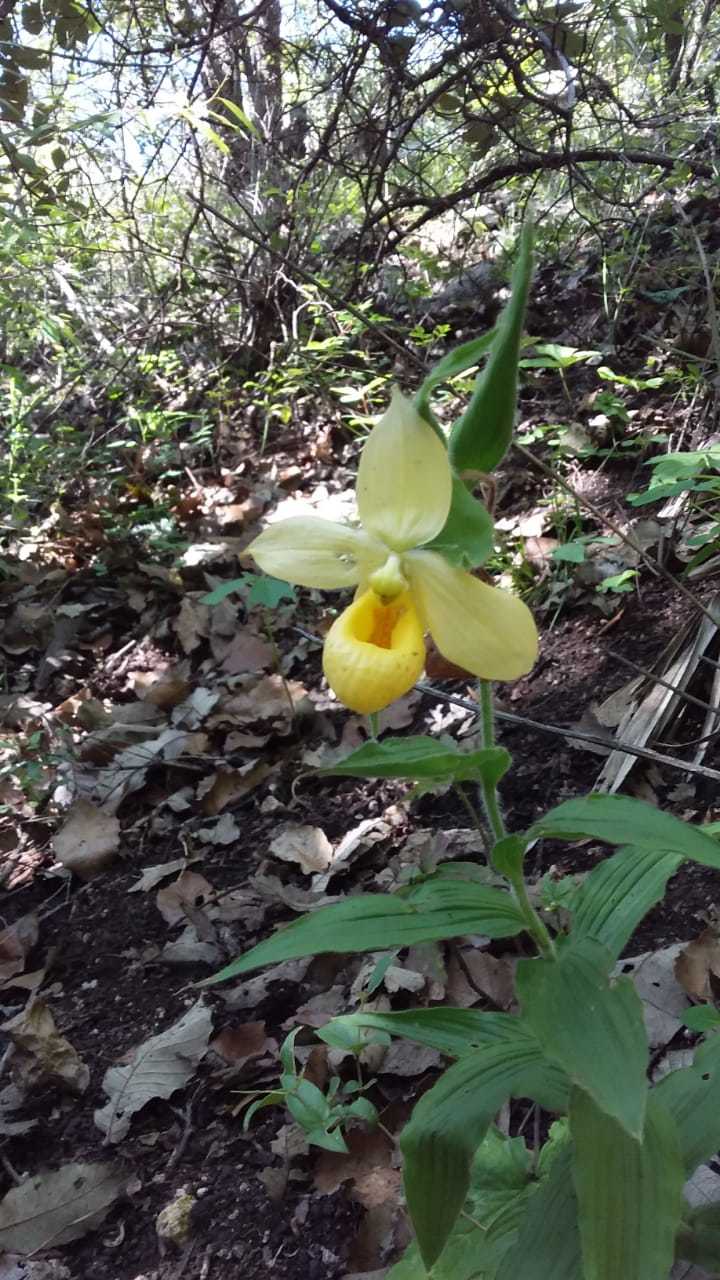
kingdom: Plantae
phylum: Tracheophyta
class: Liliopsida
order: Asparagales
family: Orchidaceae
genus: Cypripedium
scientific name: Cypripedium molle
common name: Soft cypripedium
